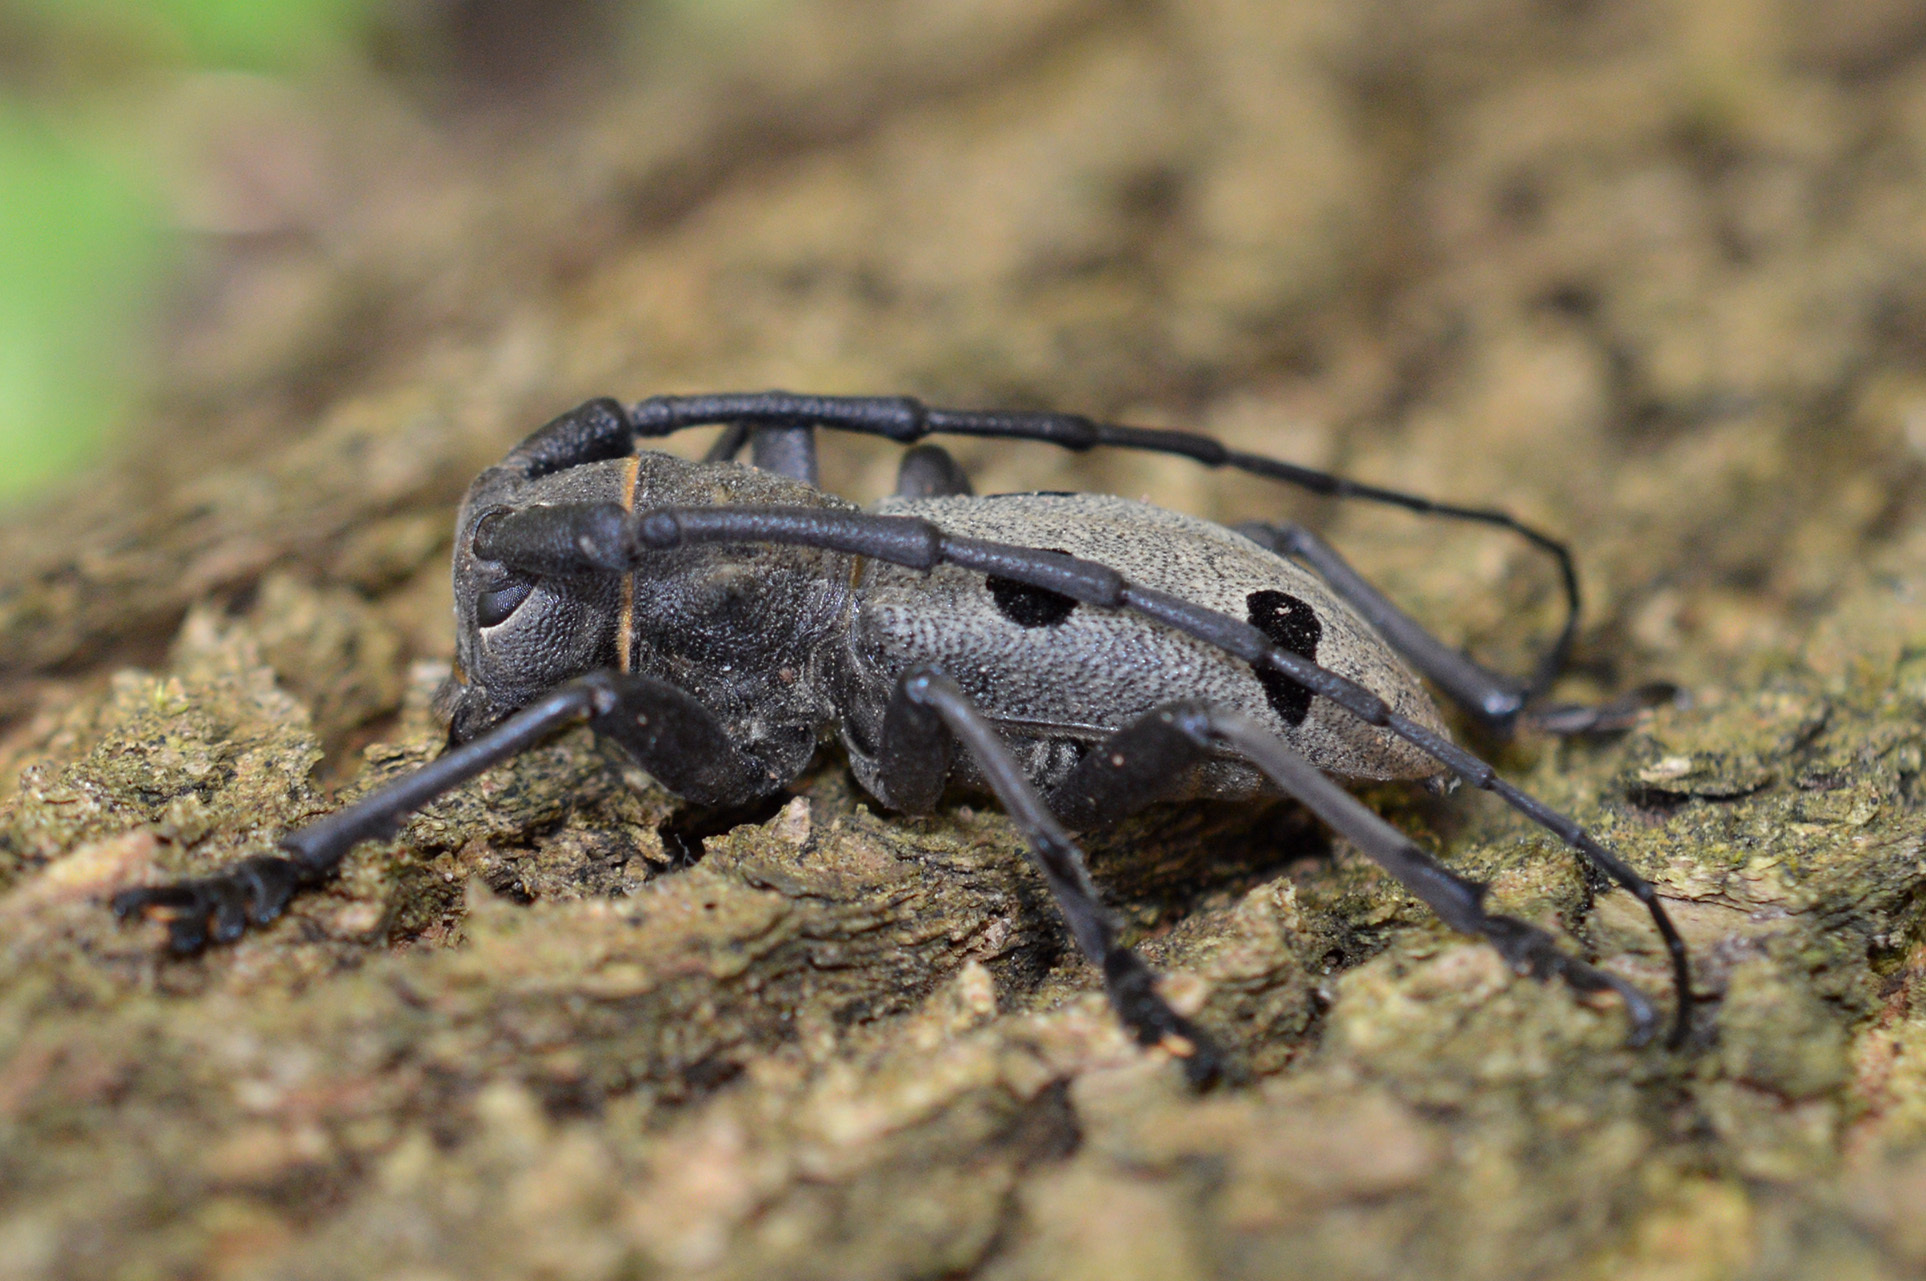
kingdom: Animalia
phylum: Arthropoda
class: Insecta
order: Coleoptera
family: Cerambycidae
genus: Morimus
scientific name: Morimus funereus
